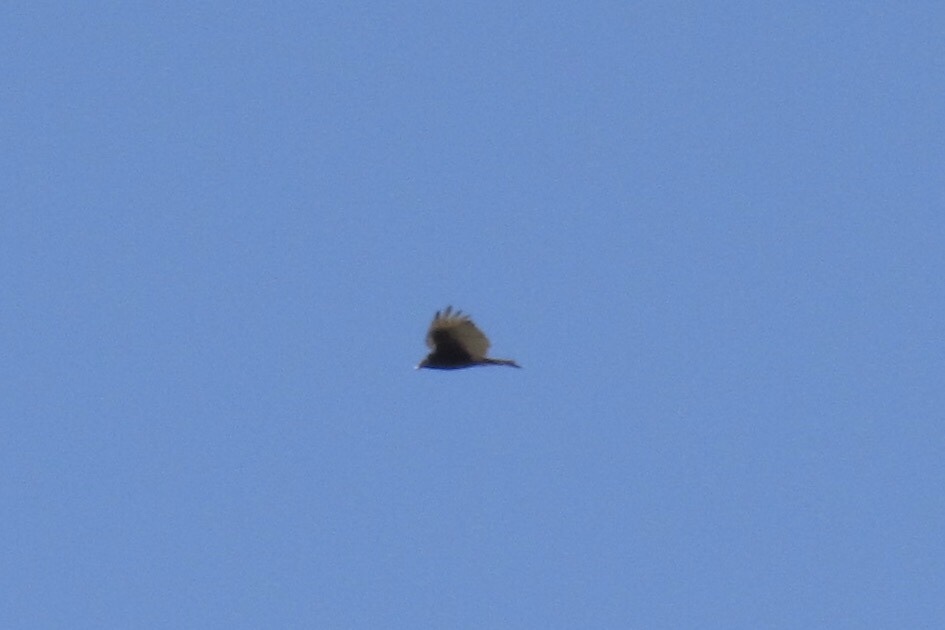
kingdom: Animalia
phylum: Chordata
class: Aves
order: Accipitriformes
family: Cathartidae
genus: Cathartes
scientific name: Cathartes aura
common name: Turkey vulture
